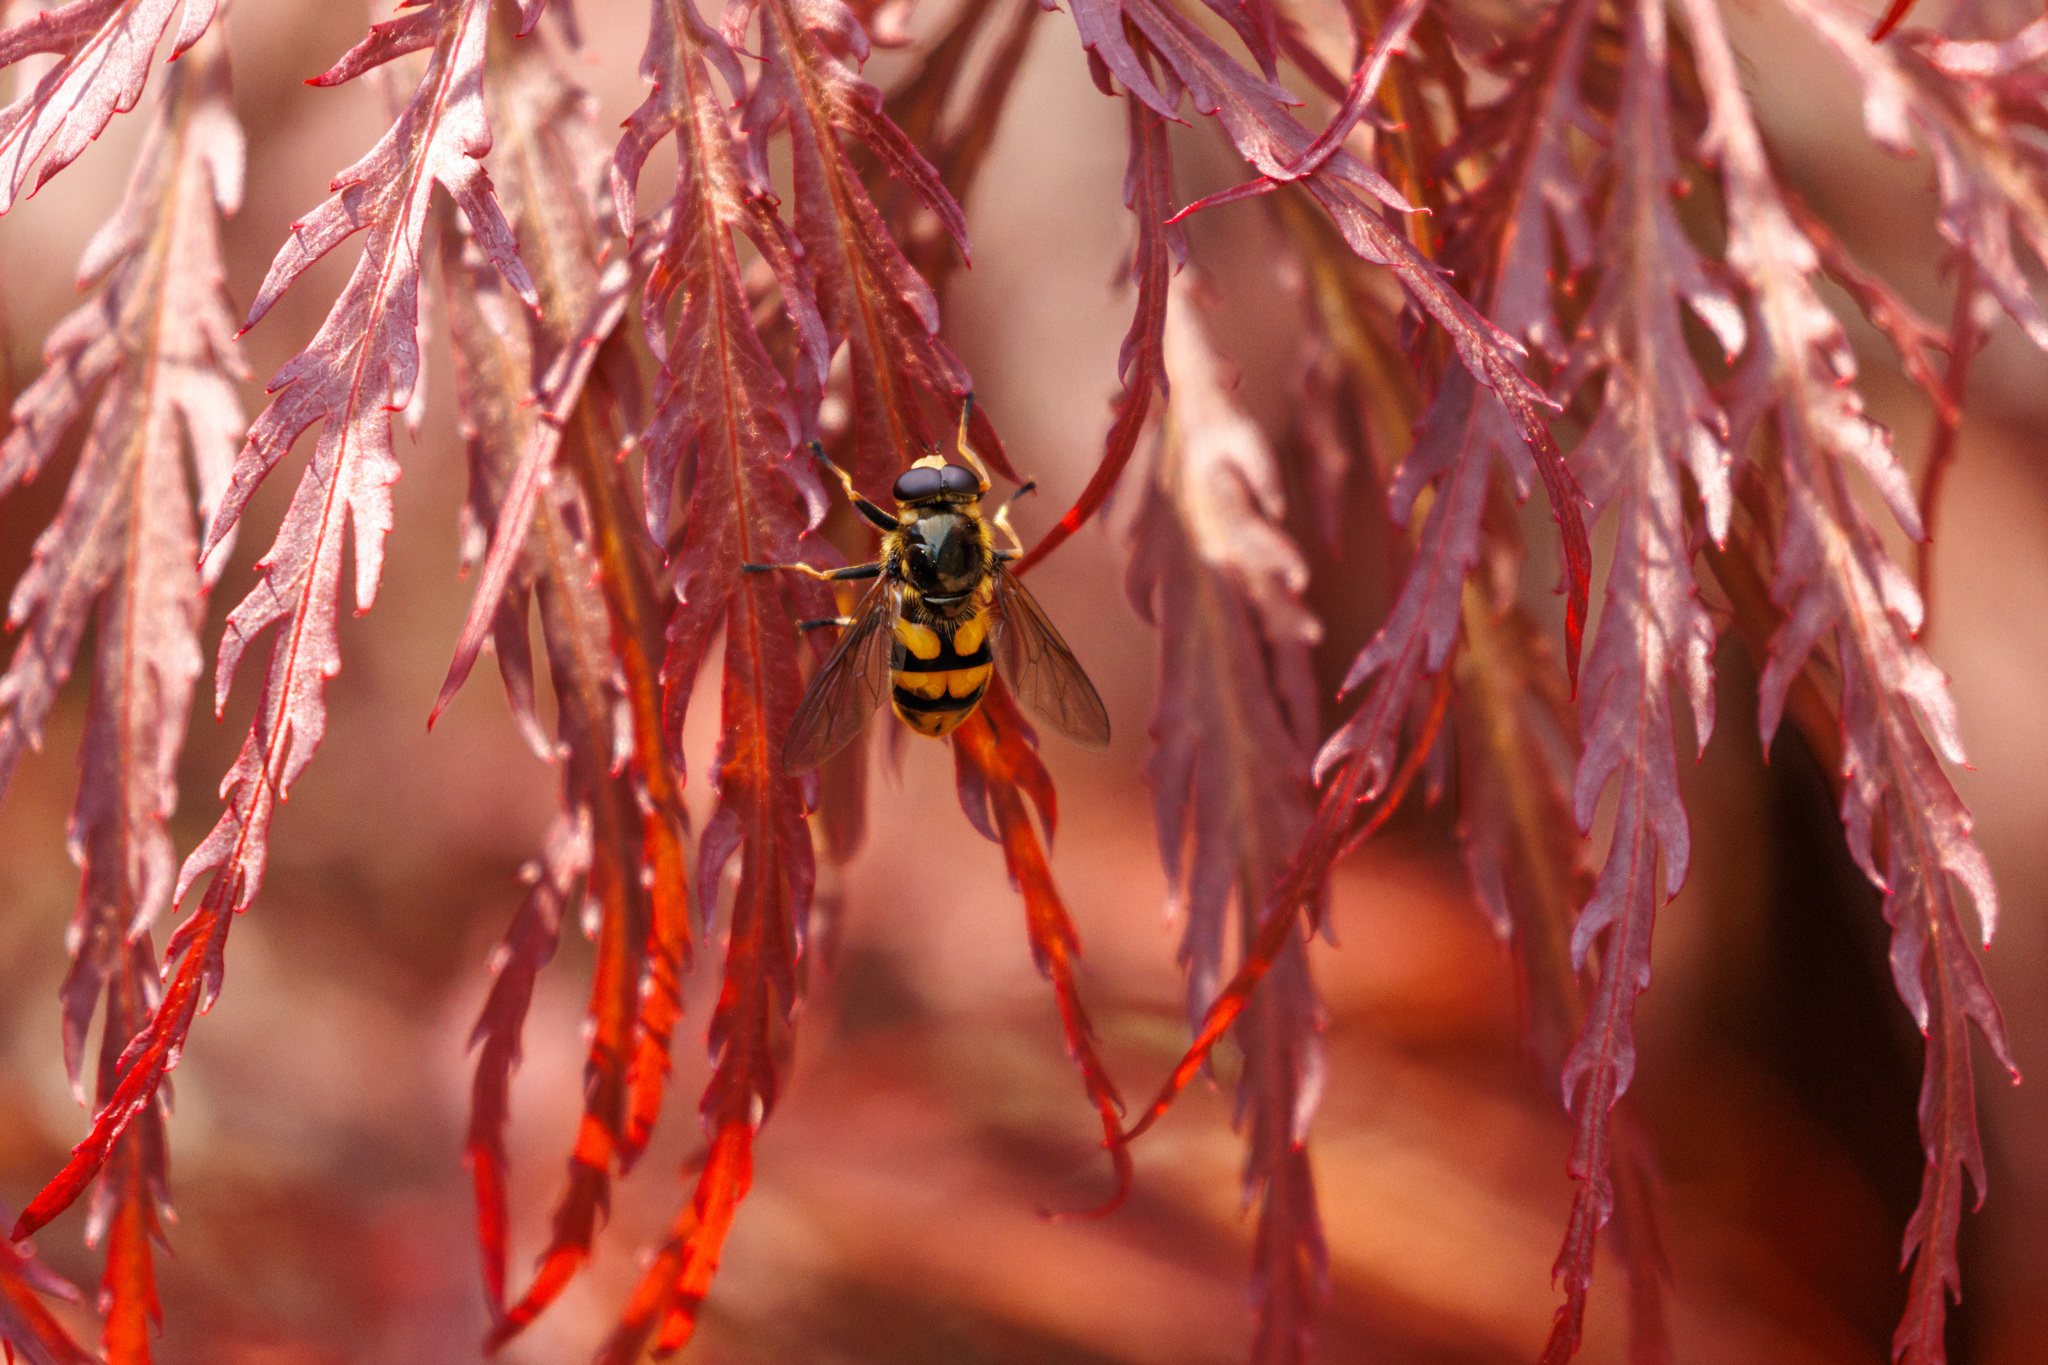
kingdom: Animalia
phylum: Arthropoda
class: Insecta
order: Diptera
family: Syrphidae
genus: Blera
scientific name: Blera scitula
